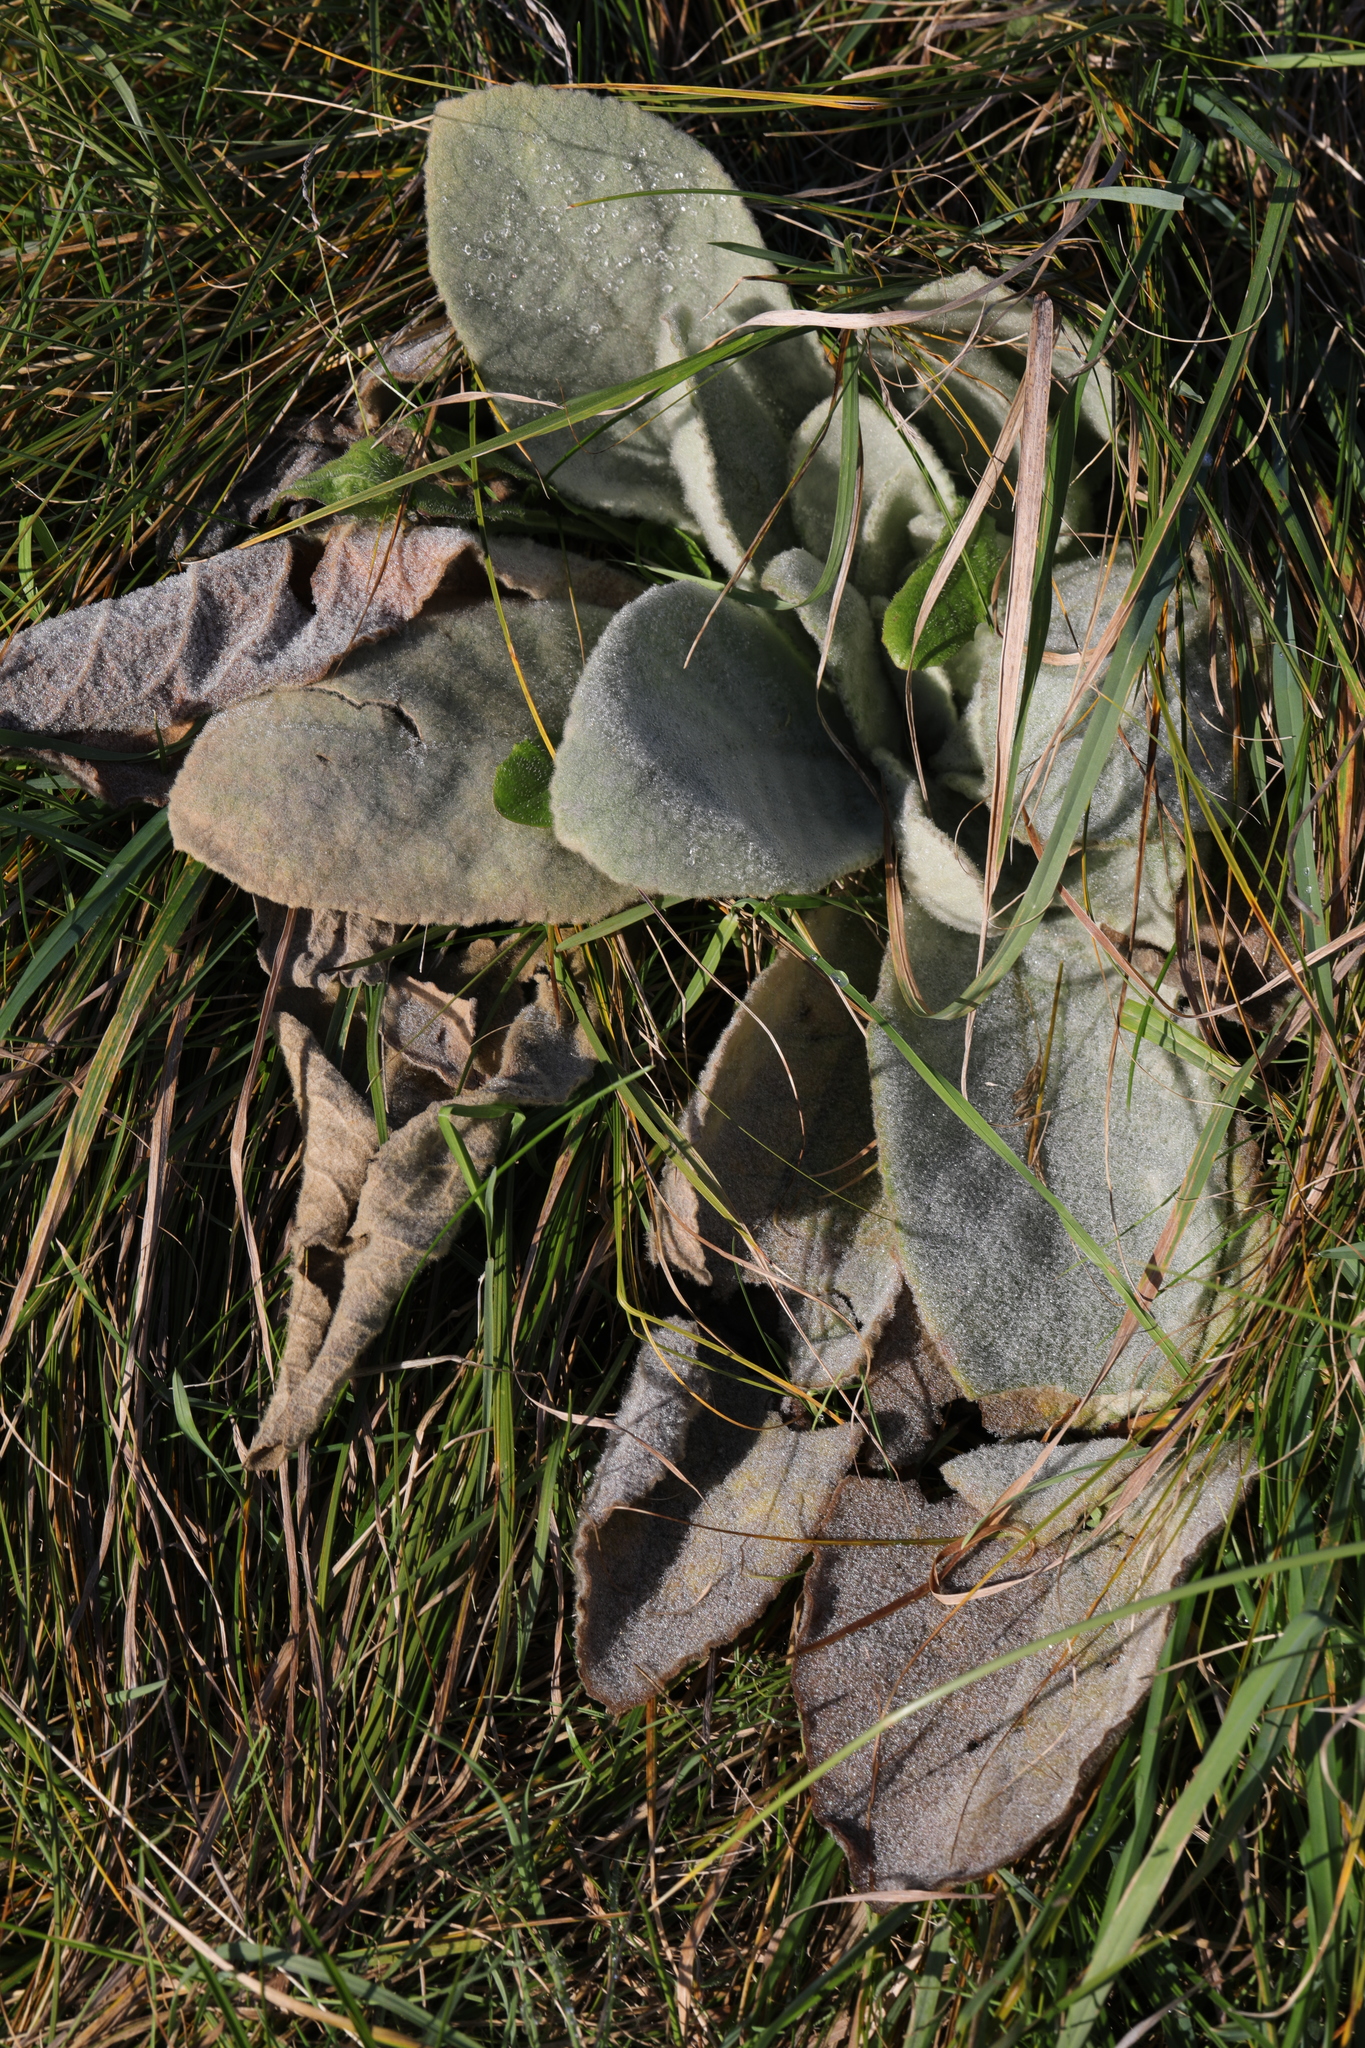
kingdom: Plantae
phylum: Tracheophyta
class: Magnoliopsida
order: Lamiales
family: Scrophulariaceae
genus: Verbascum
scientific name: Verbascum thapsus
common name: Common mullein
